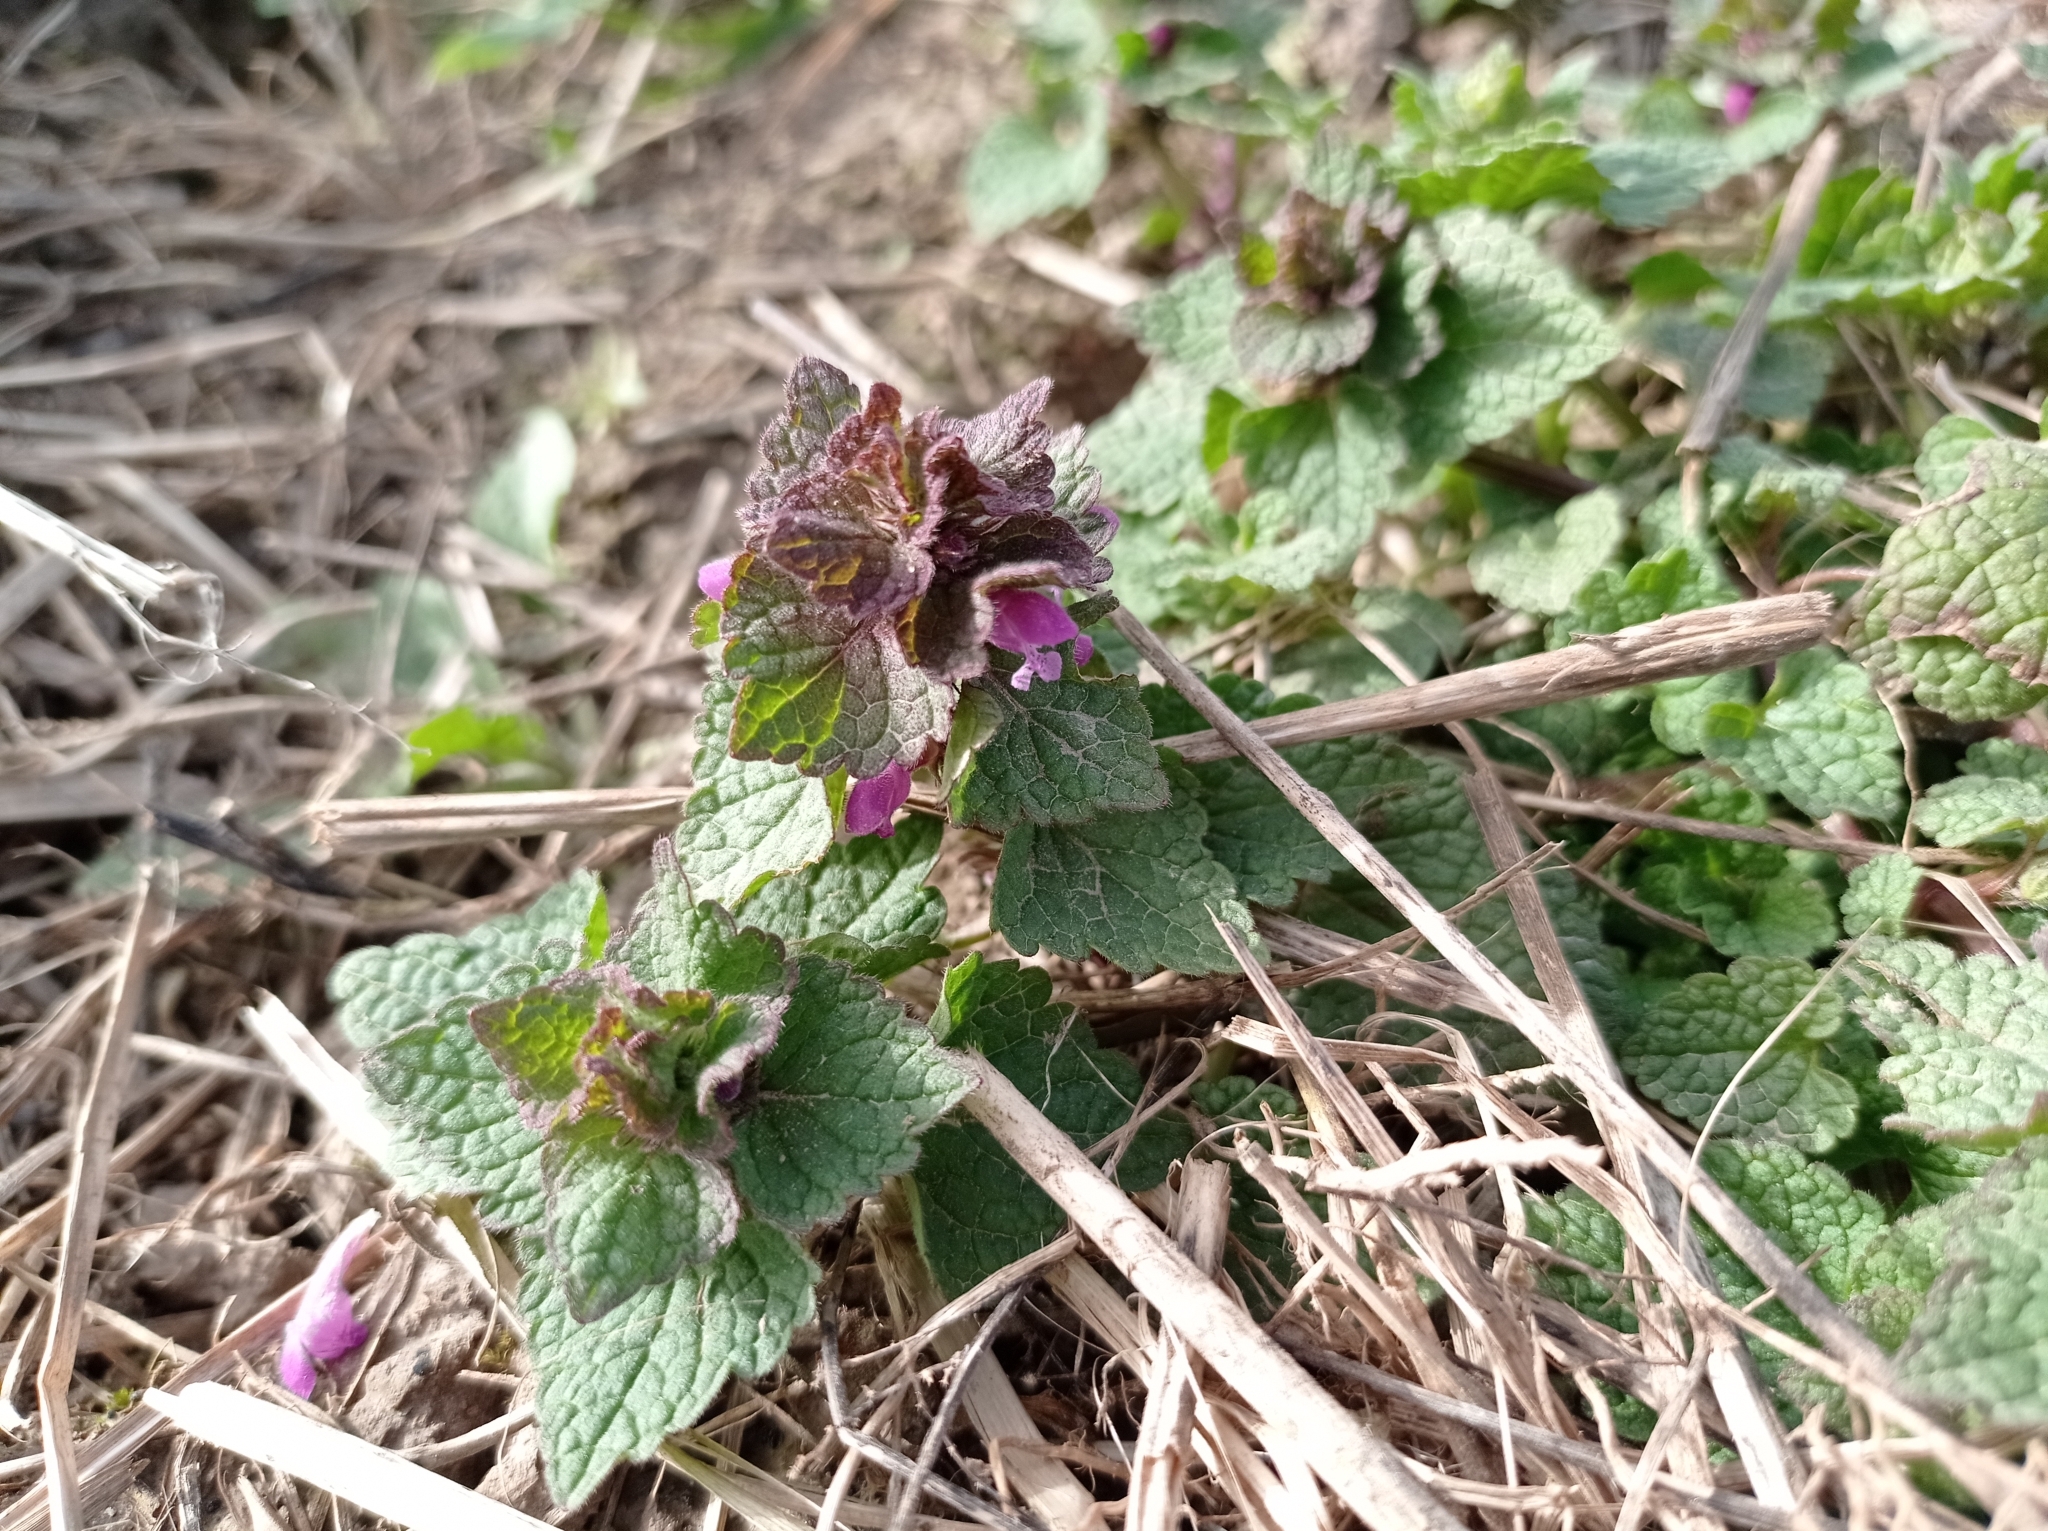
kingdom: Plantae
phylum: Tracheophyta
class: Magnoliopsida
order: Lamiales
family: Lamiaceae
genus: Lamium
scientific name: Lamium purpureum
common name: Red dead-nettle
